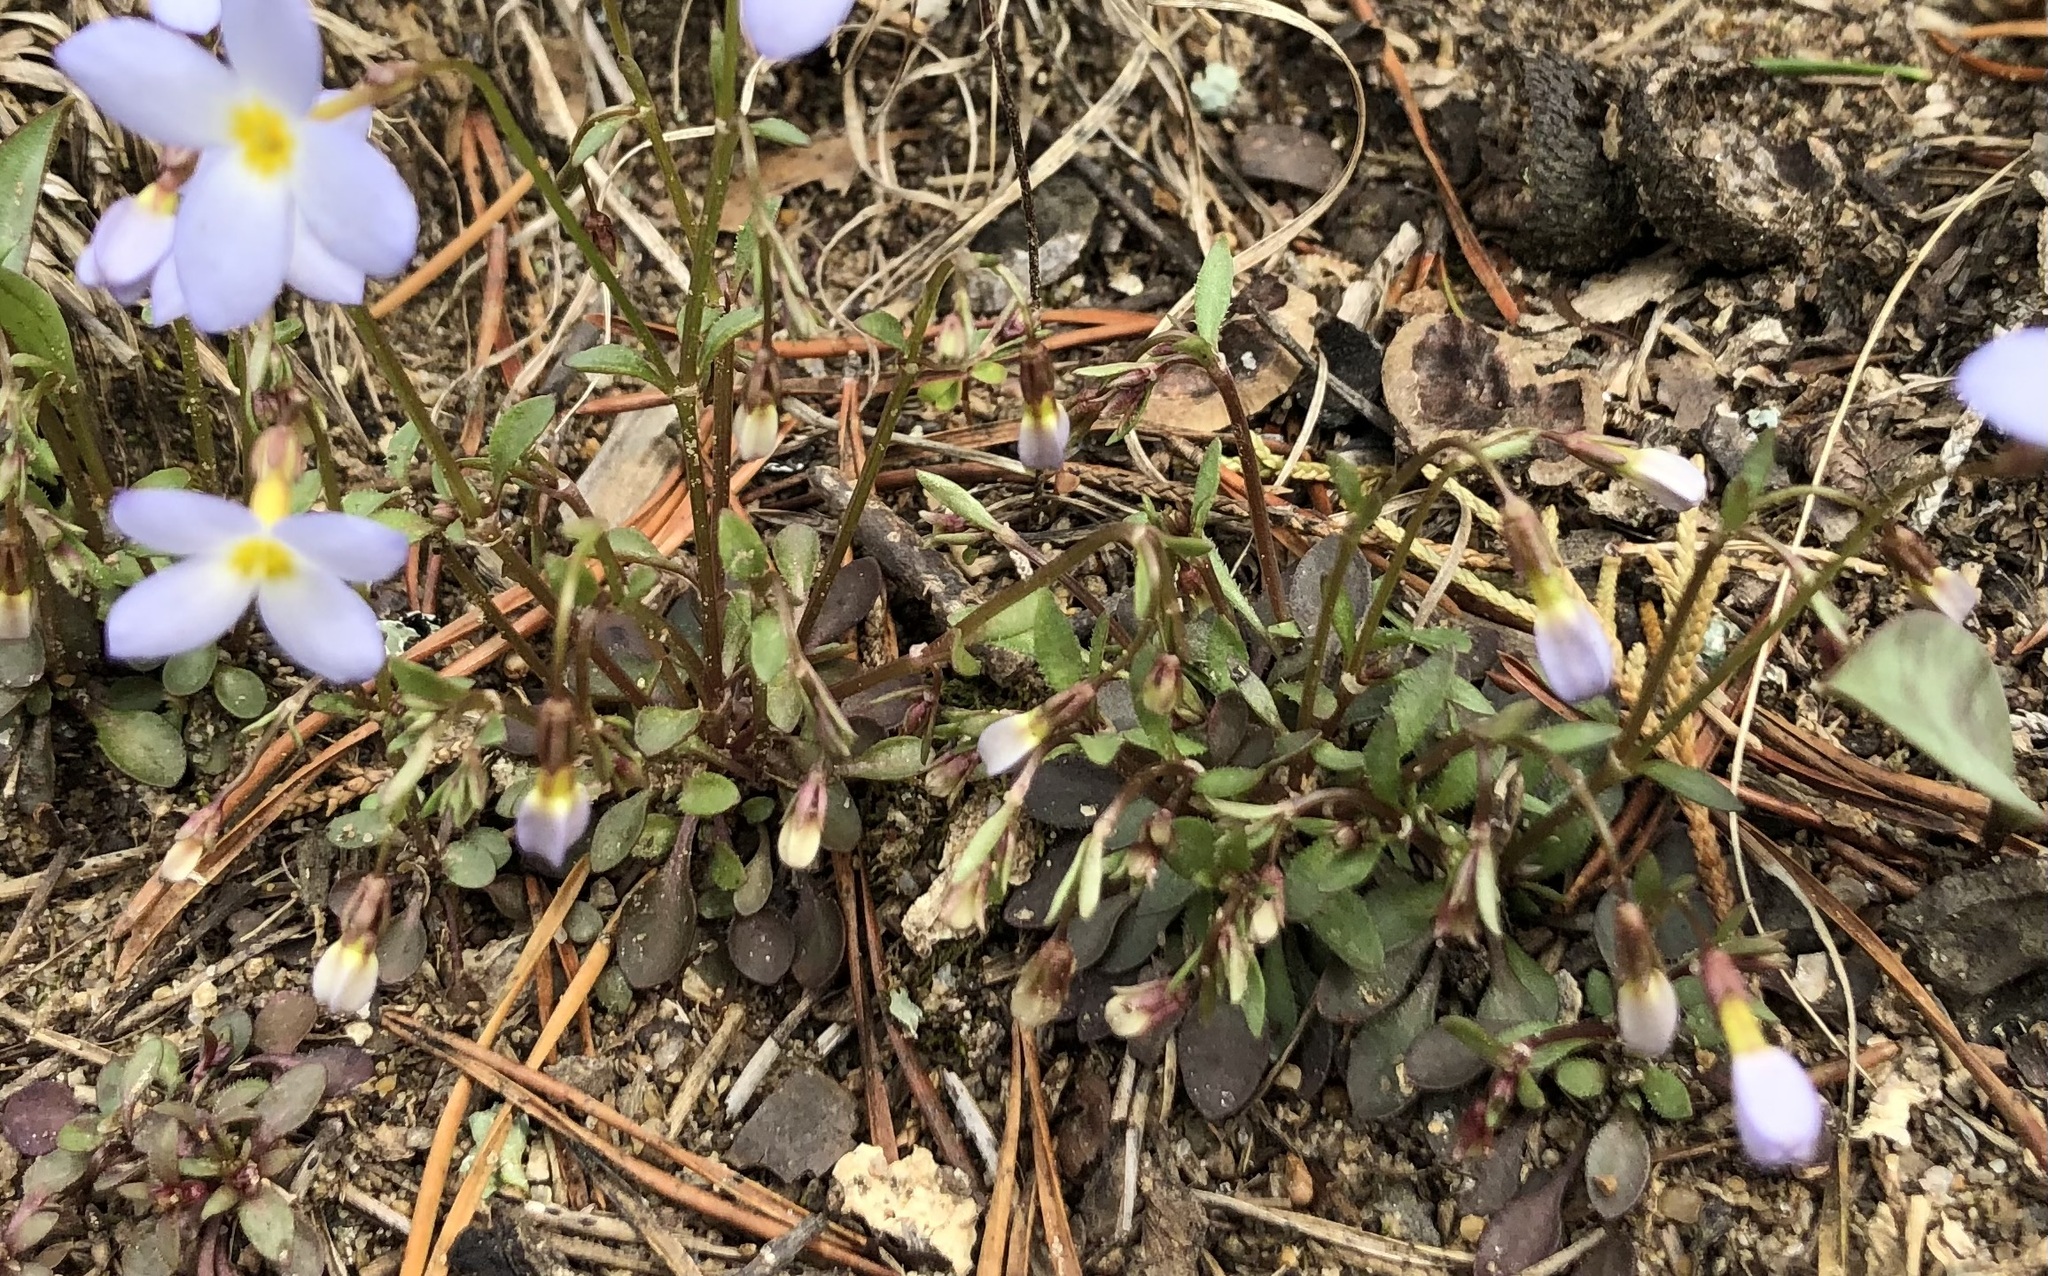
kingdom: Plantae
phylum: Tracheophyta
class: Magnoliopsida
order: Gentianales
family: Rubiaceae
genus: Houstonia
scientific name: Houstonia caerulea
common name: Bluets
